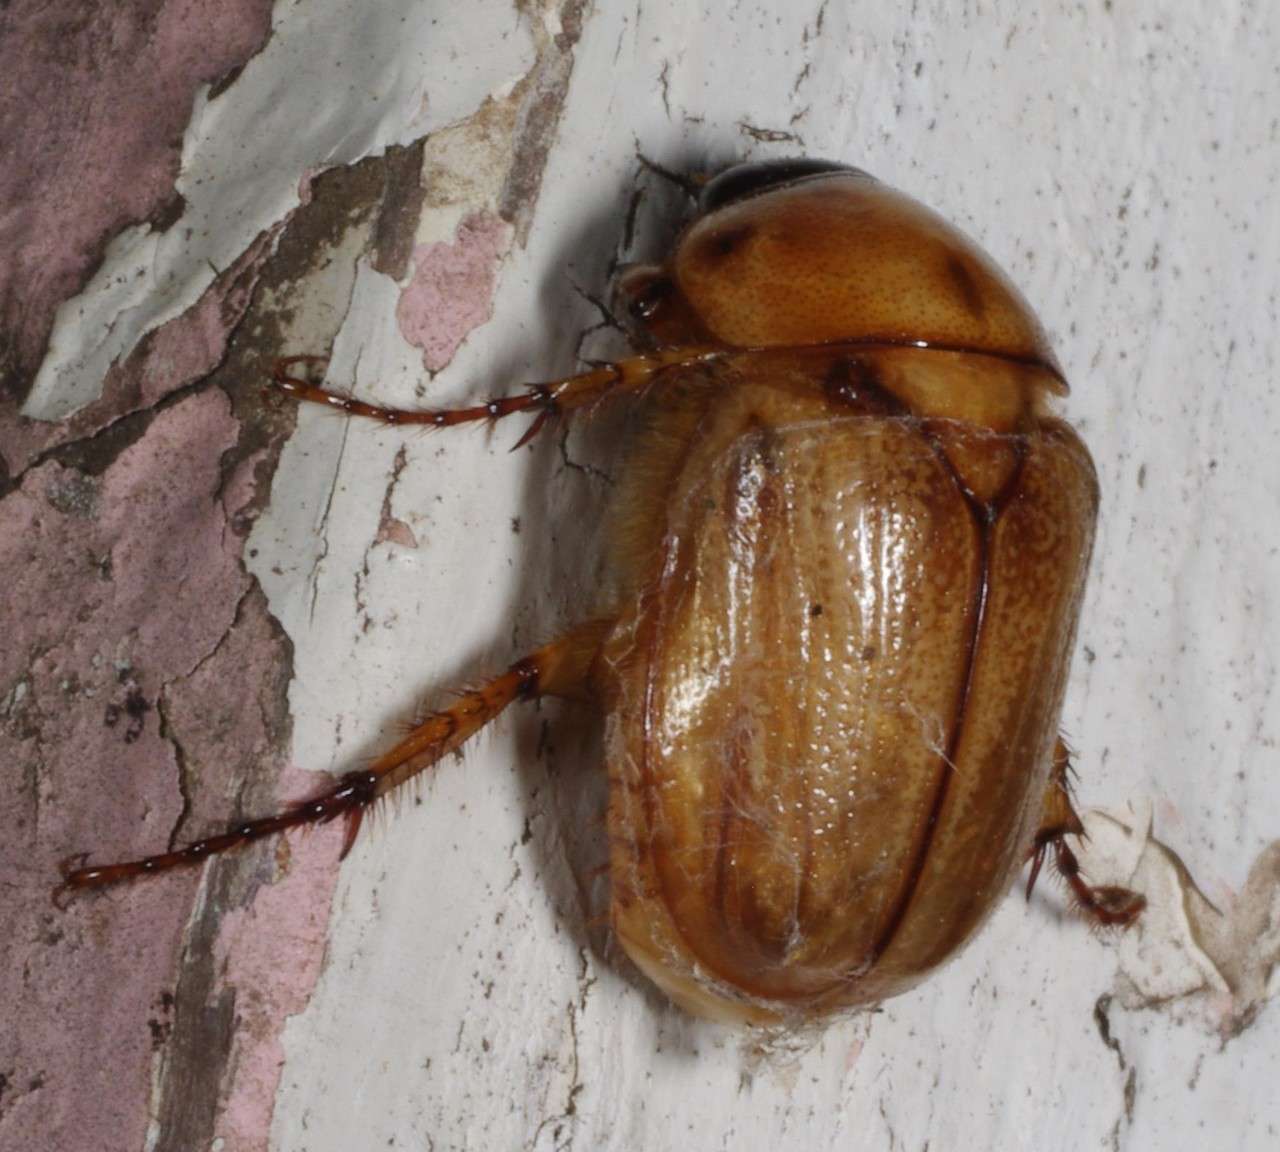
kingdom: Animalia
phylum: Arthropoda
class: Insecta
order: Coleoptera
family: Scarabaeidae
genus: Cyclocephala
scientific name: Cyclocephala signaticollis
